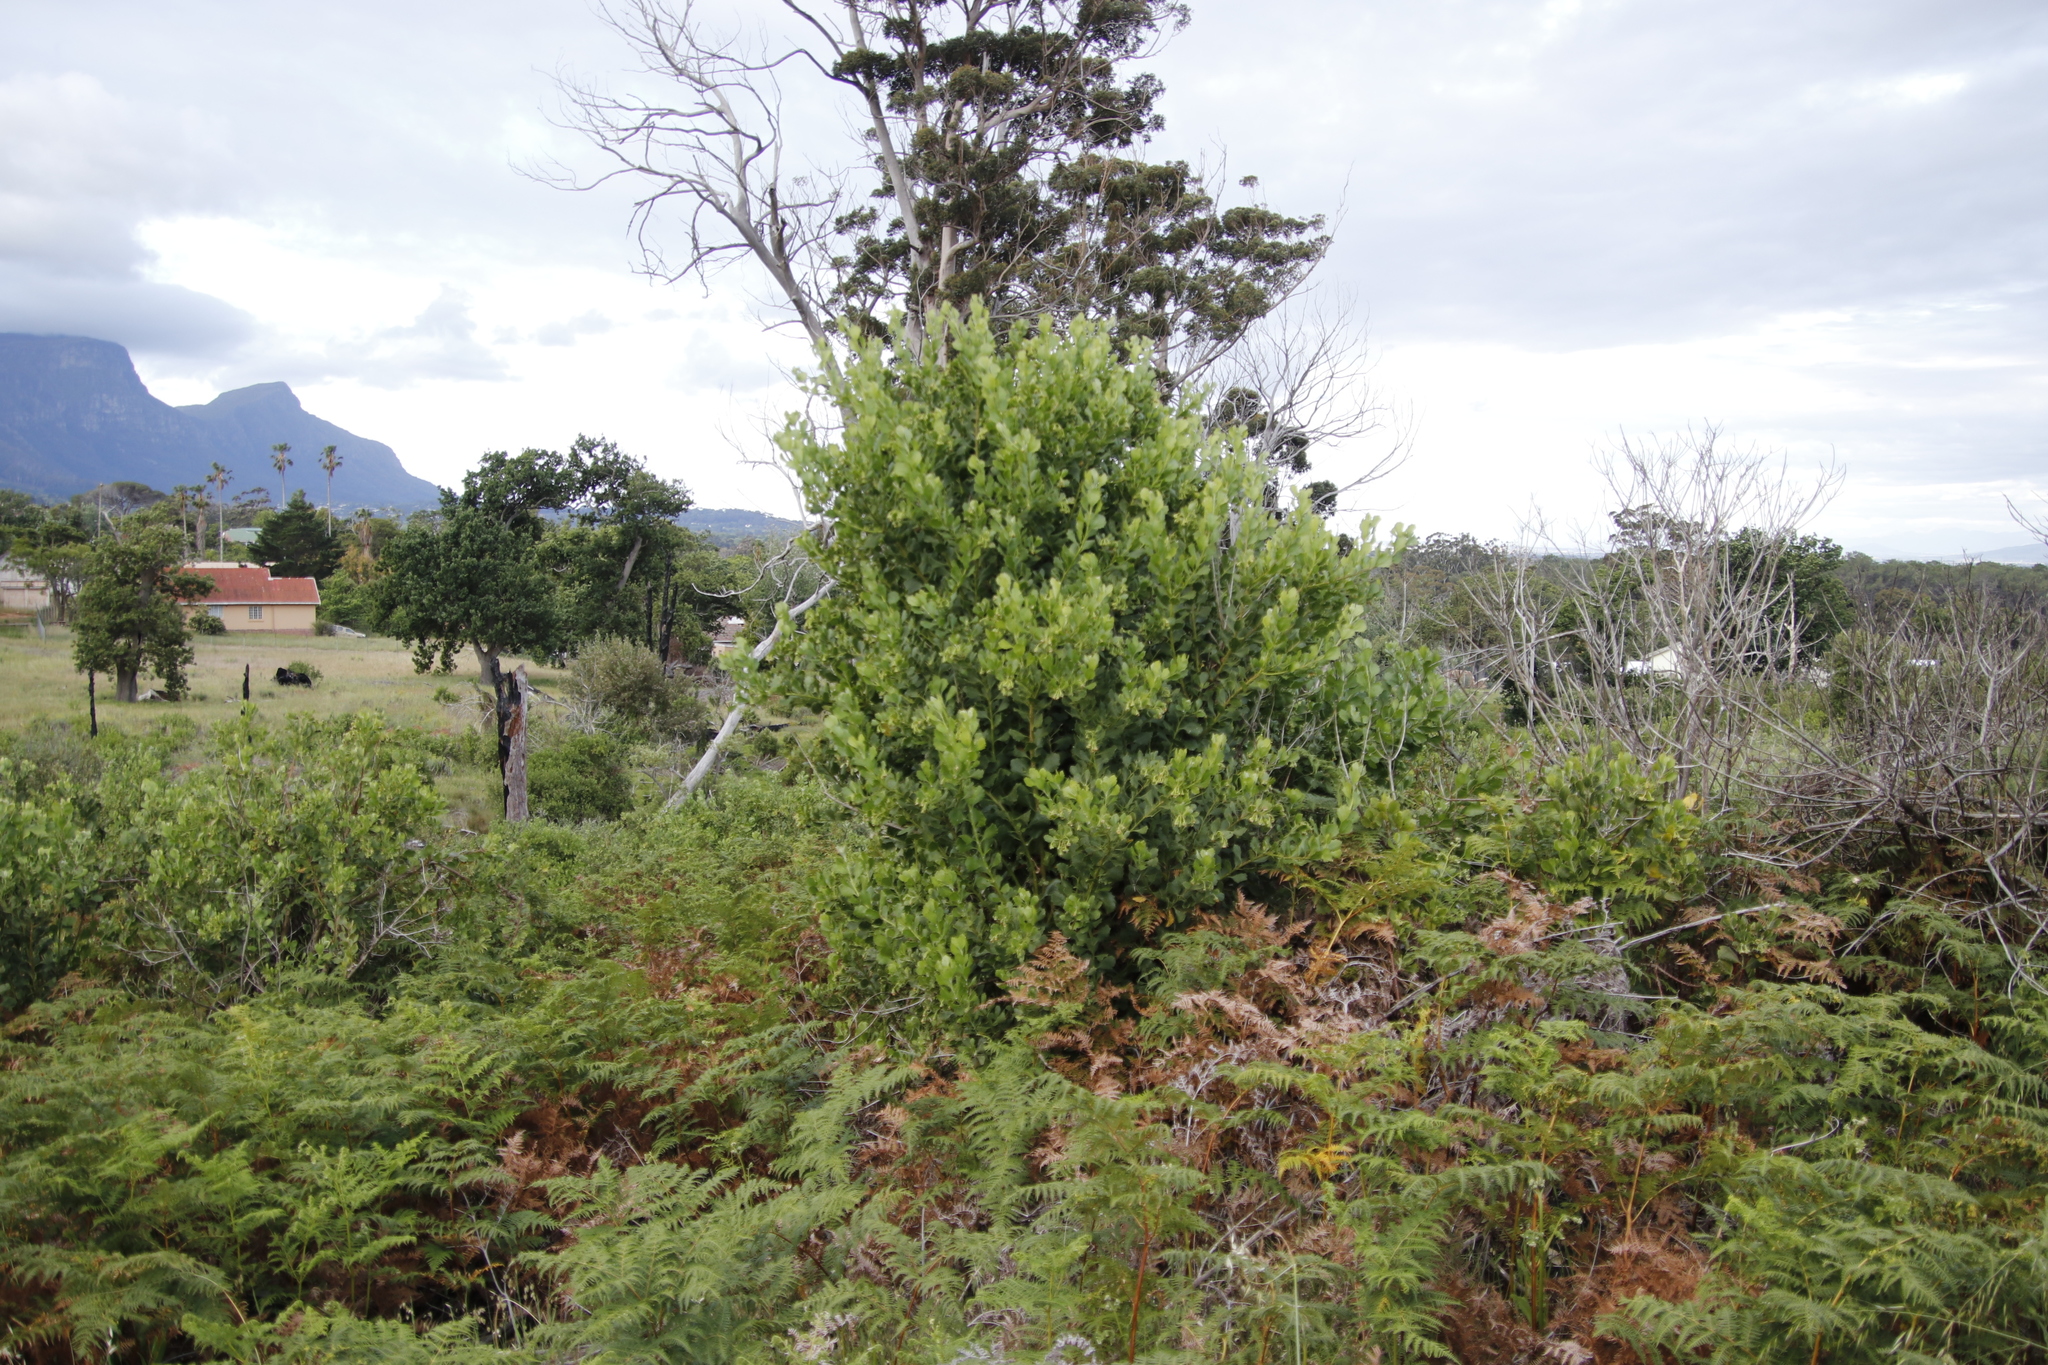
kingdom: Plantae
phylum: Tracheophyta
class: Magnoliopsida
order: Asterales
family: Asteraceae
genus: Osteospermum
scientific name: Osteospermum moniliferum
